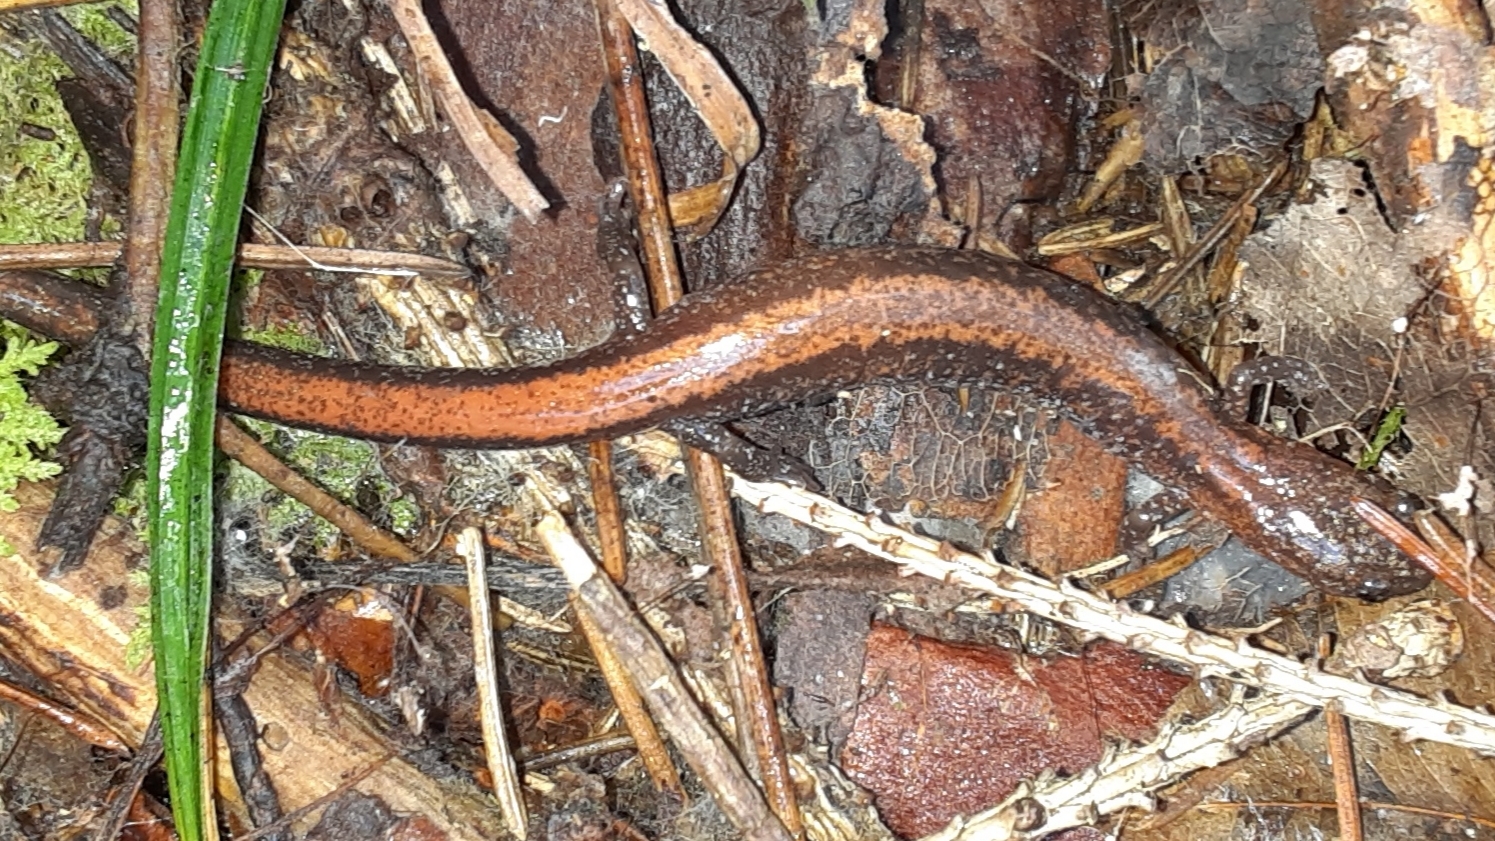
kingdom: Animalia
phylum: Chordata
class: Amphibia
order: Caudata
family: Plethodontidae
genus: Plethodon
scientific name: Plethodon cinereus
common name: Redback salamander
